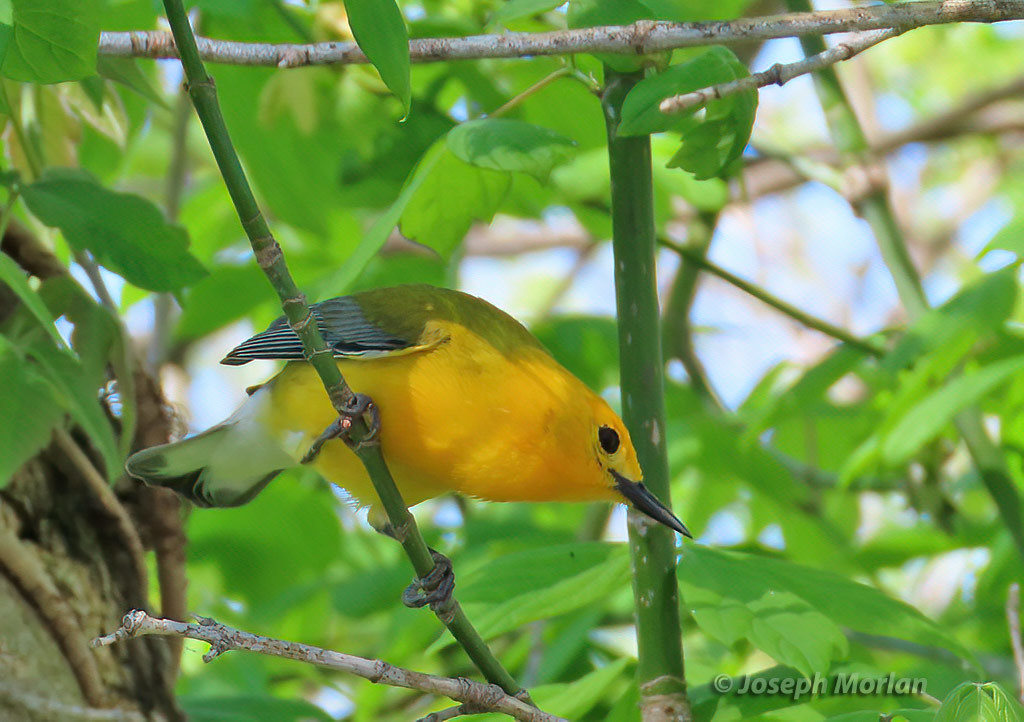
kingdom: Animalia
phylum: Chordata
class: Aves
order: Passeriformes
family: Parulidae
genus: Protonotaria
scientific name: Protonotaria citrea
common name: Prothonotary warbler
